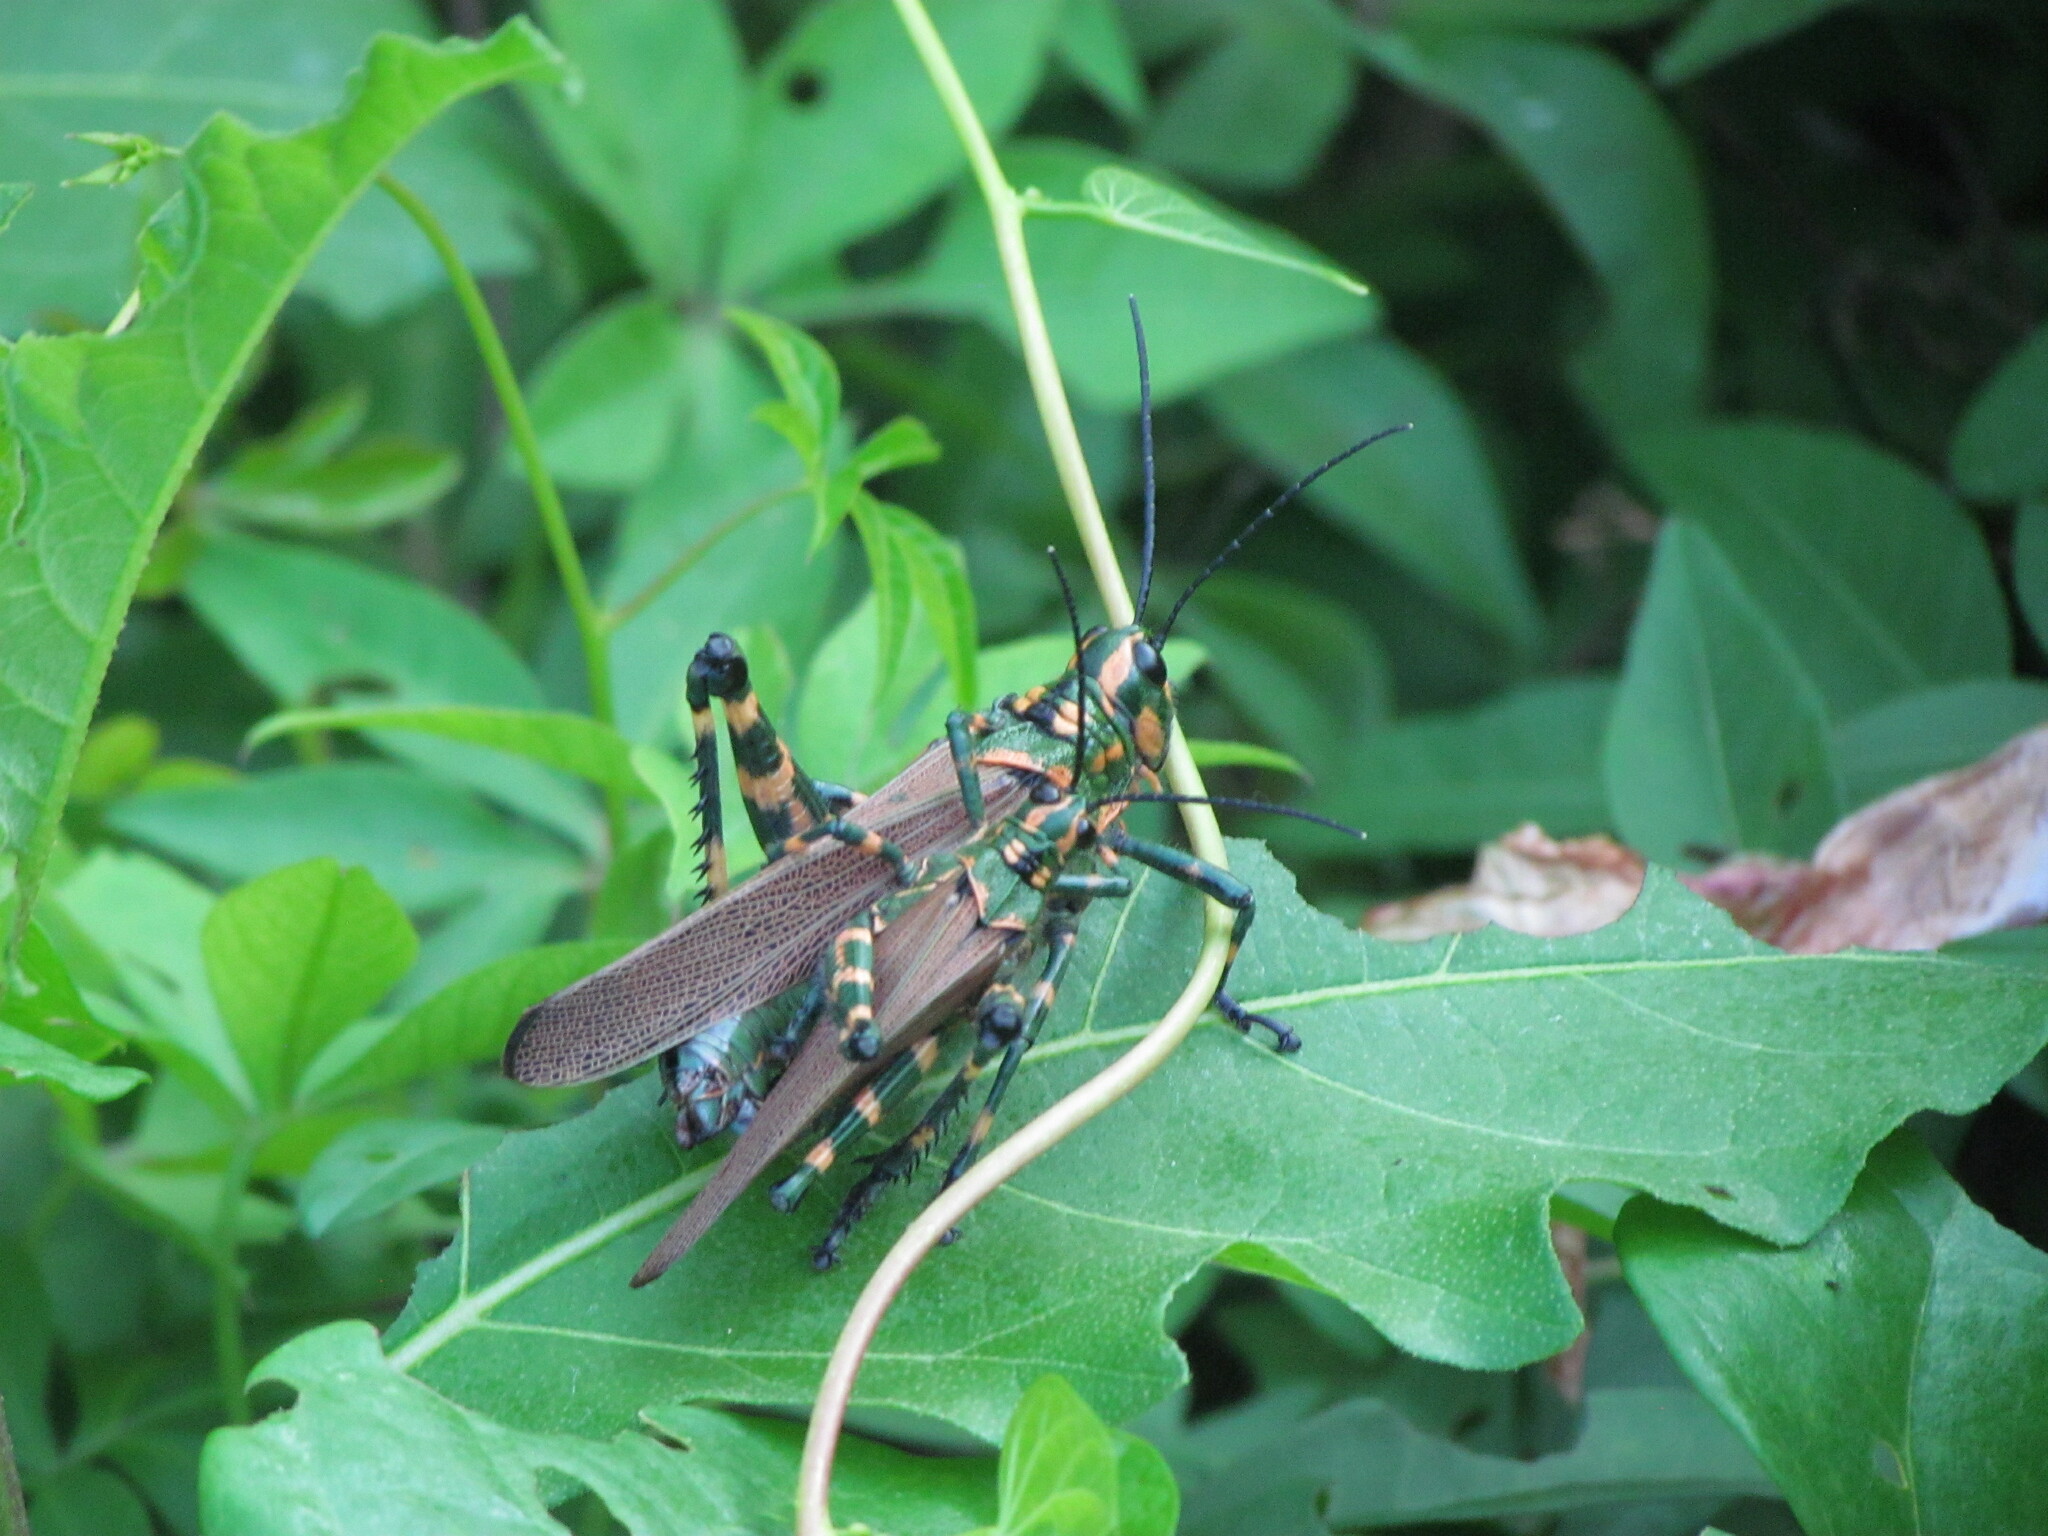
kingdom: Animalia
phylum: Arthropoda
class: Insecta
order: Orthoptera
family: Romaleidae
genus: Chromacris
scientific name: Chromacris speciosa
